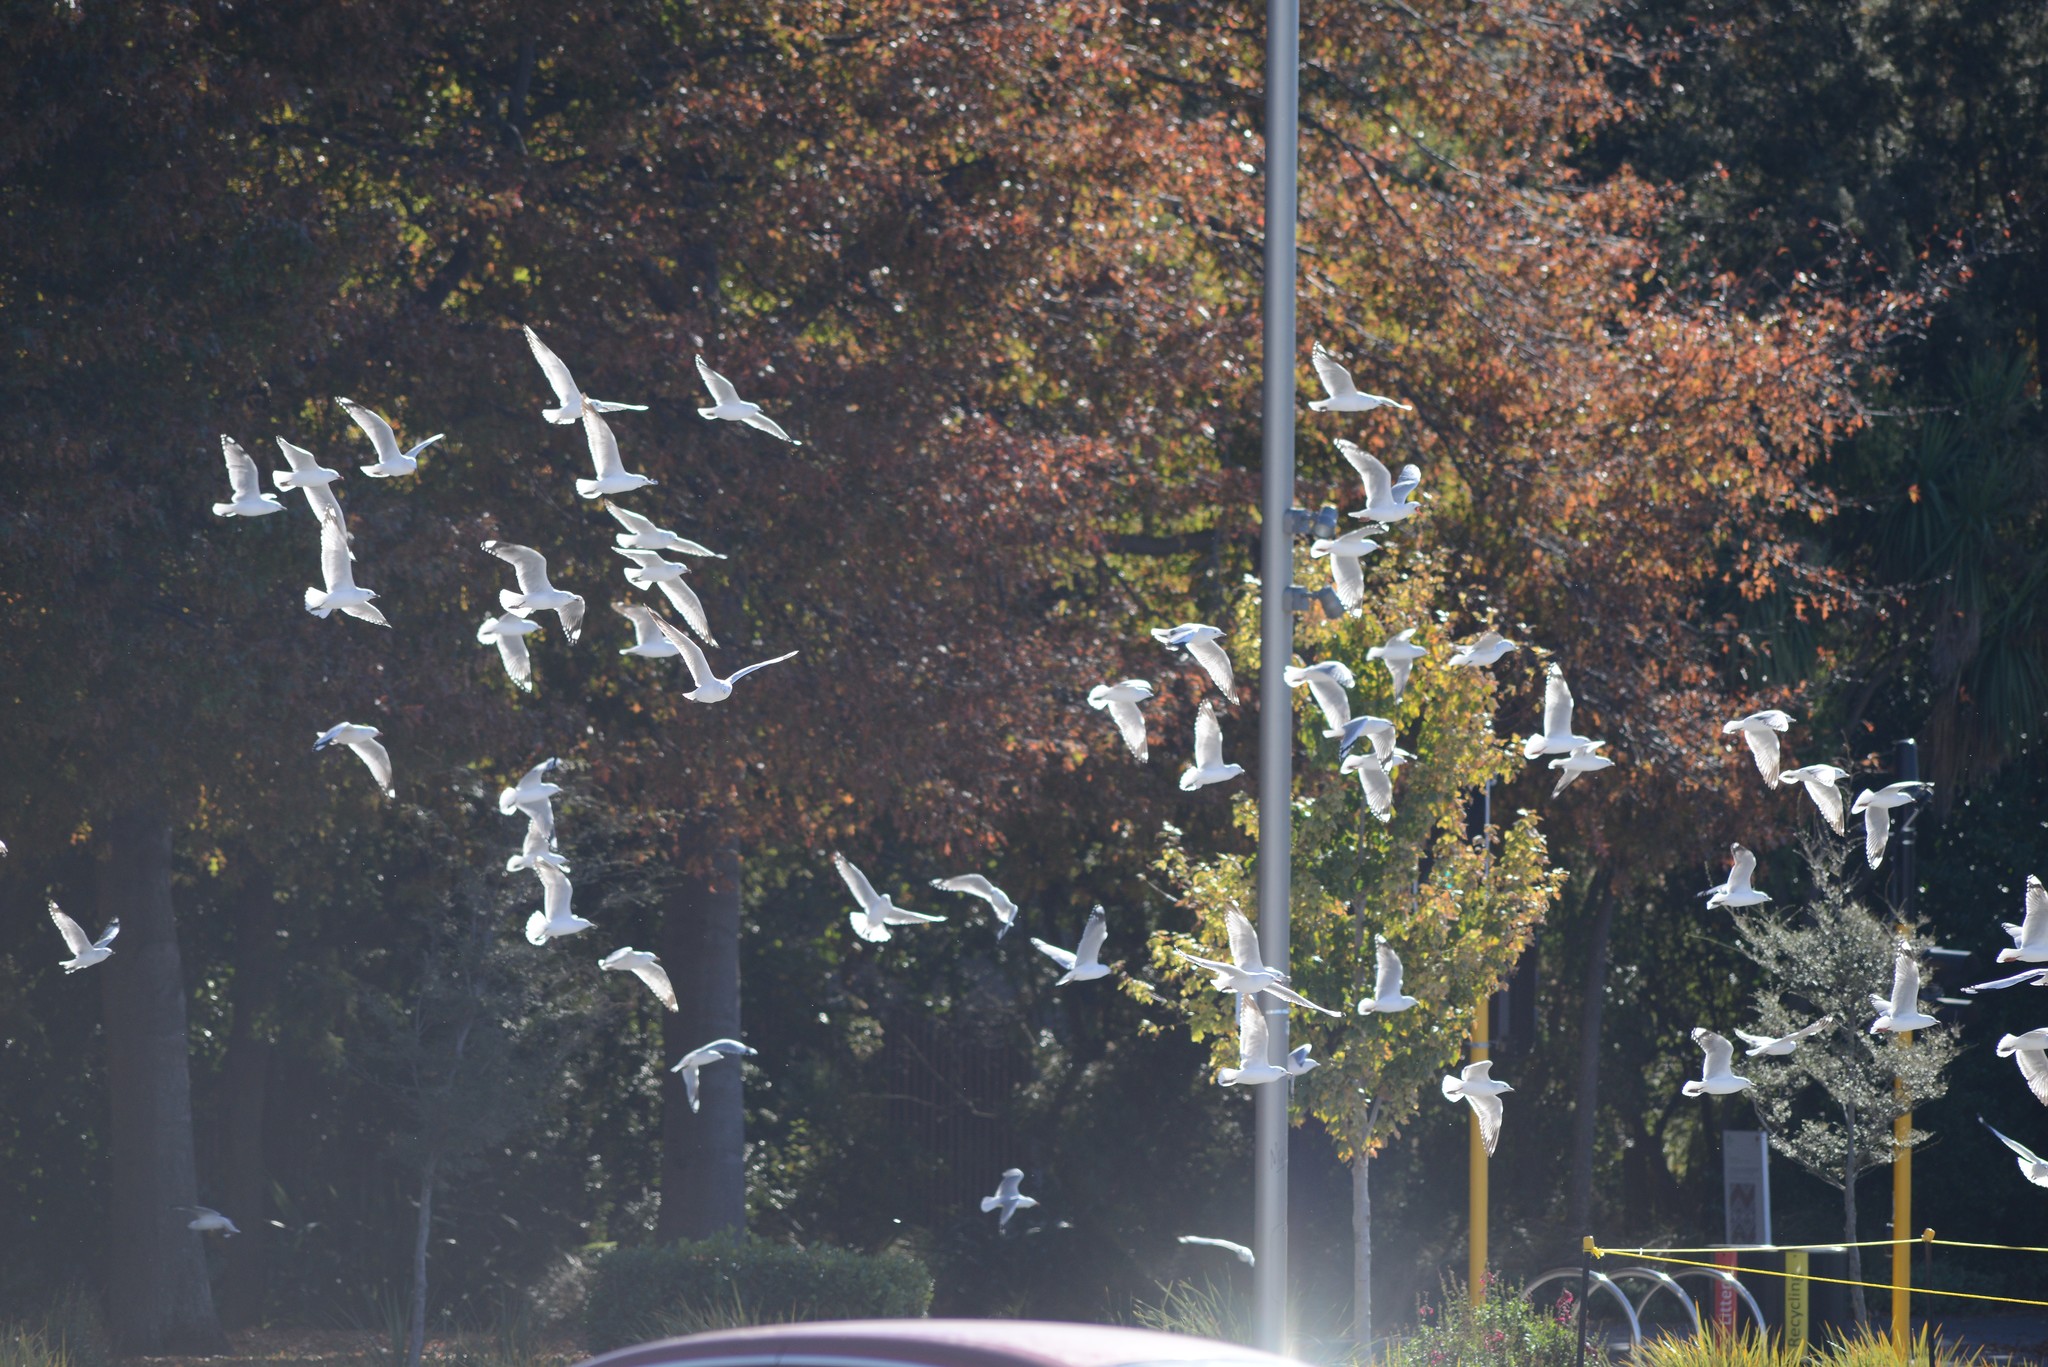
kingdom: Animalia
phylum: Chordata
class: Aves
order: Charadriiformes
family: Laridae
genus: Chroicocephalus
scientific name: Chroicocephalus novaehollandiae
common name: Silver gull
